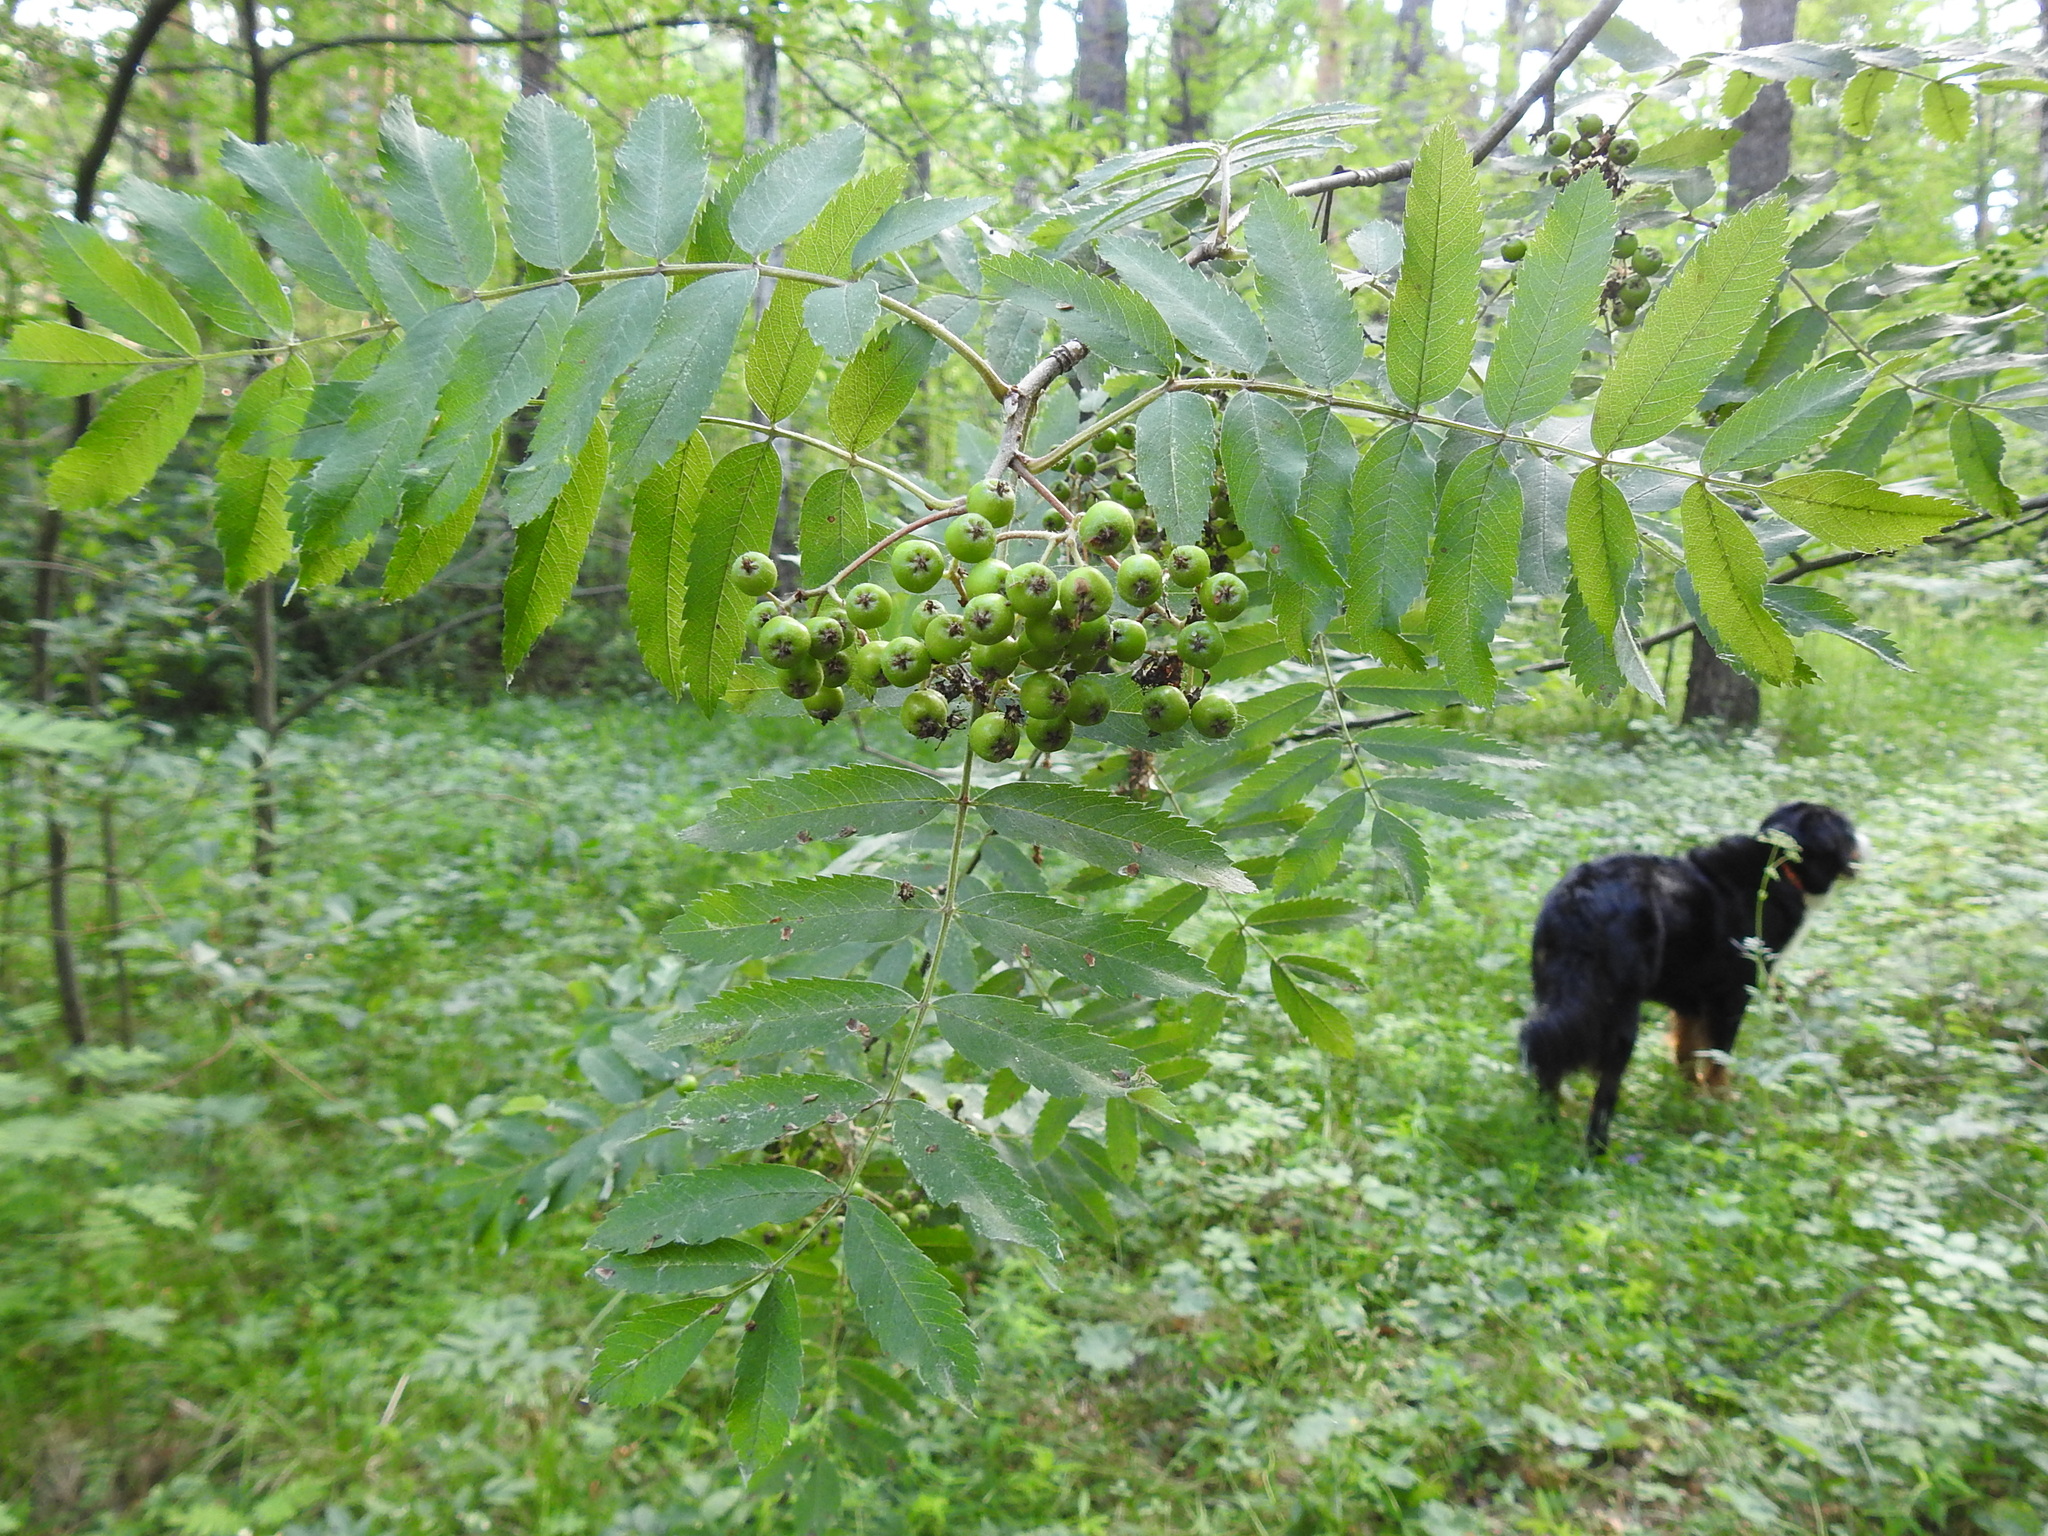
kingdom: Plantae
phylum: Tracheophyta
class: Magnoliopsida
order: Rosales
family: Rosaceae
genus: Sorbus
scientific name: Sorbus aucuparia
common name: Rowan
